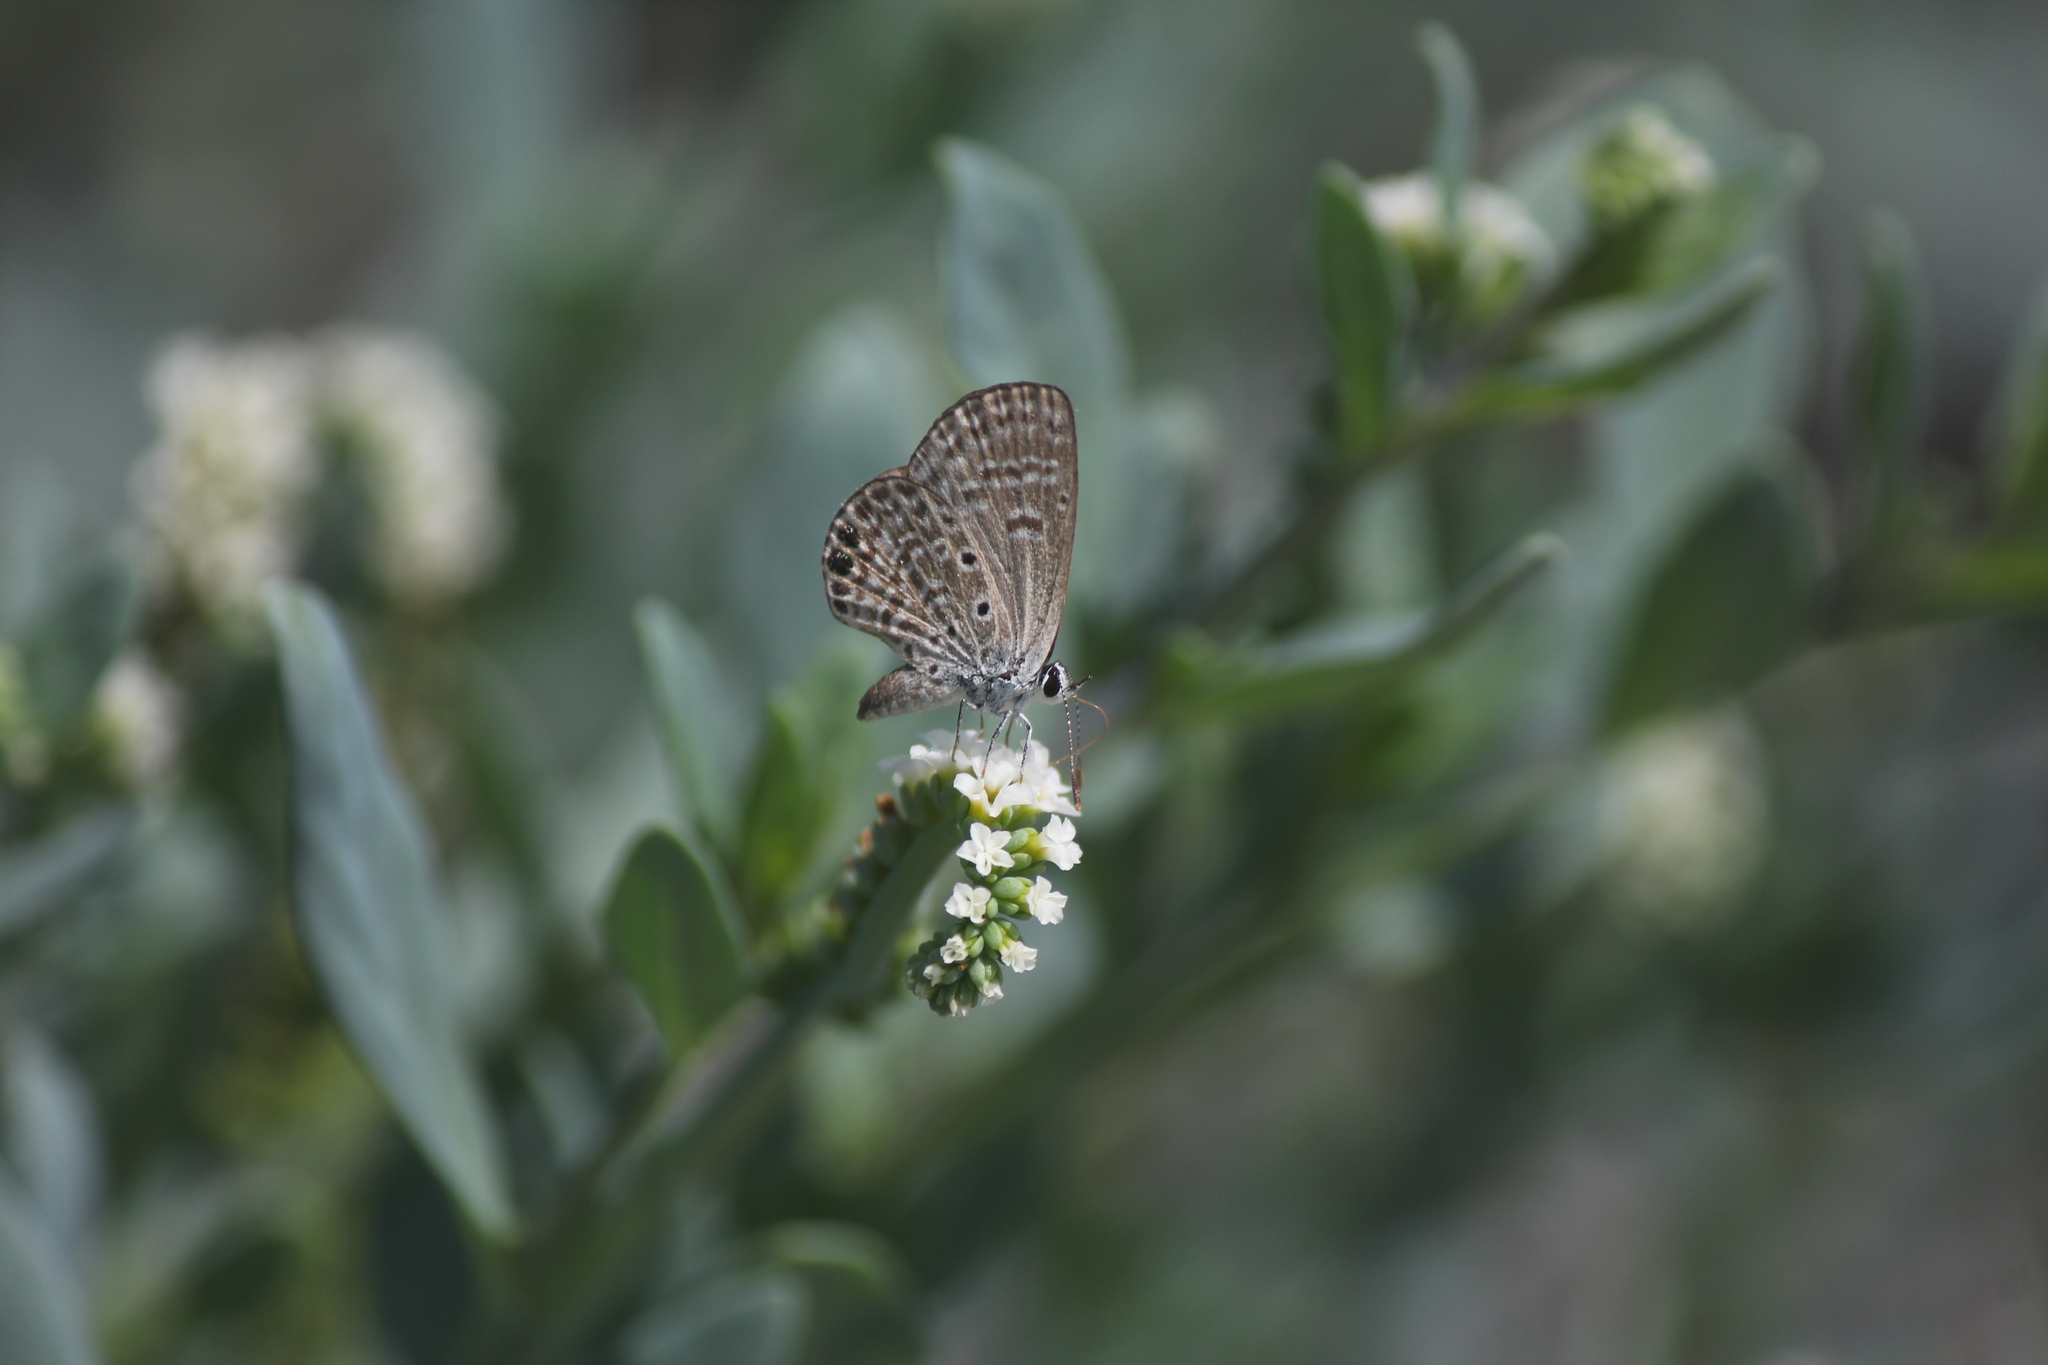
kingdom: Animalia
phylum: Arthropoda
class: Insecta
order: Lepidoptera
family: Lycaenidae
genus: Hemiargus
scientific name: Hemiargus ramon
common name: Ramon blue
